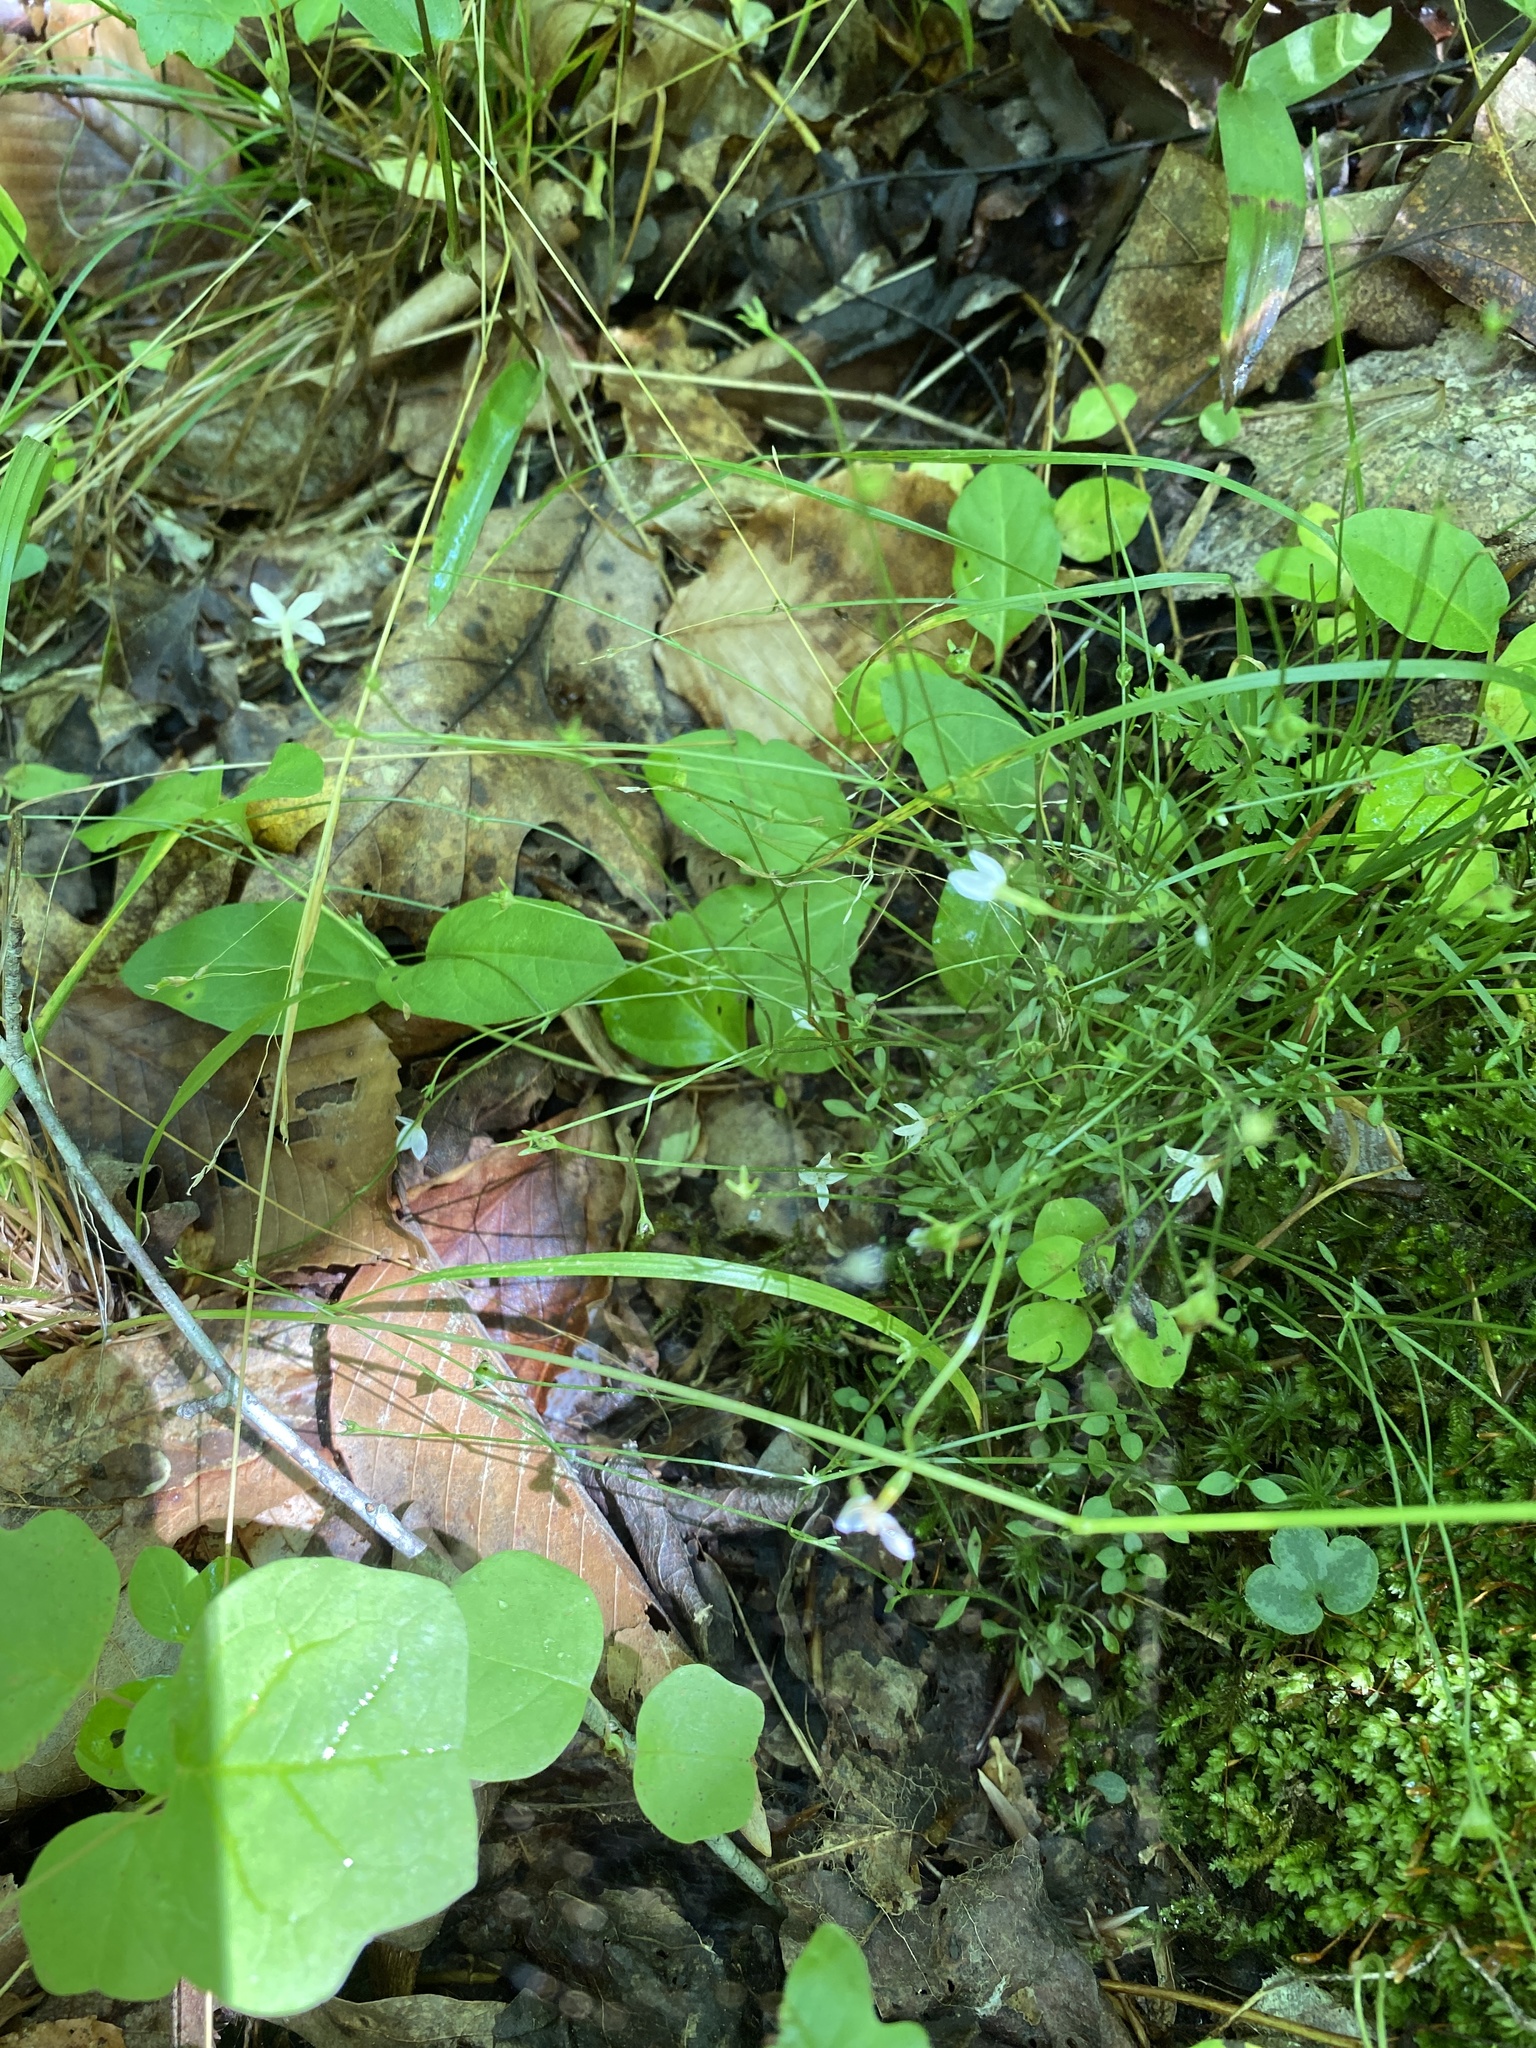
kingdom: Plantae
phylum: Tracheophyta
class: Magnoliopsida
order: Gentianales
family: Rubiaceae
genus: Houstonia
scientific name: Houstonia caerulea
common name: Bluets
